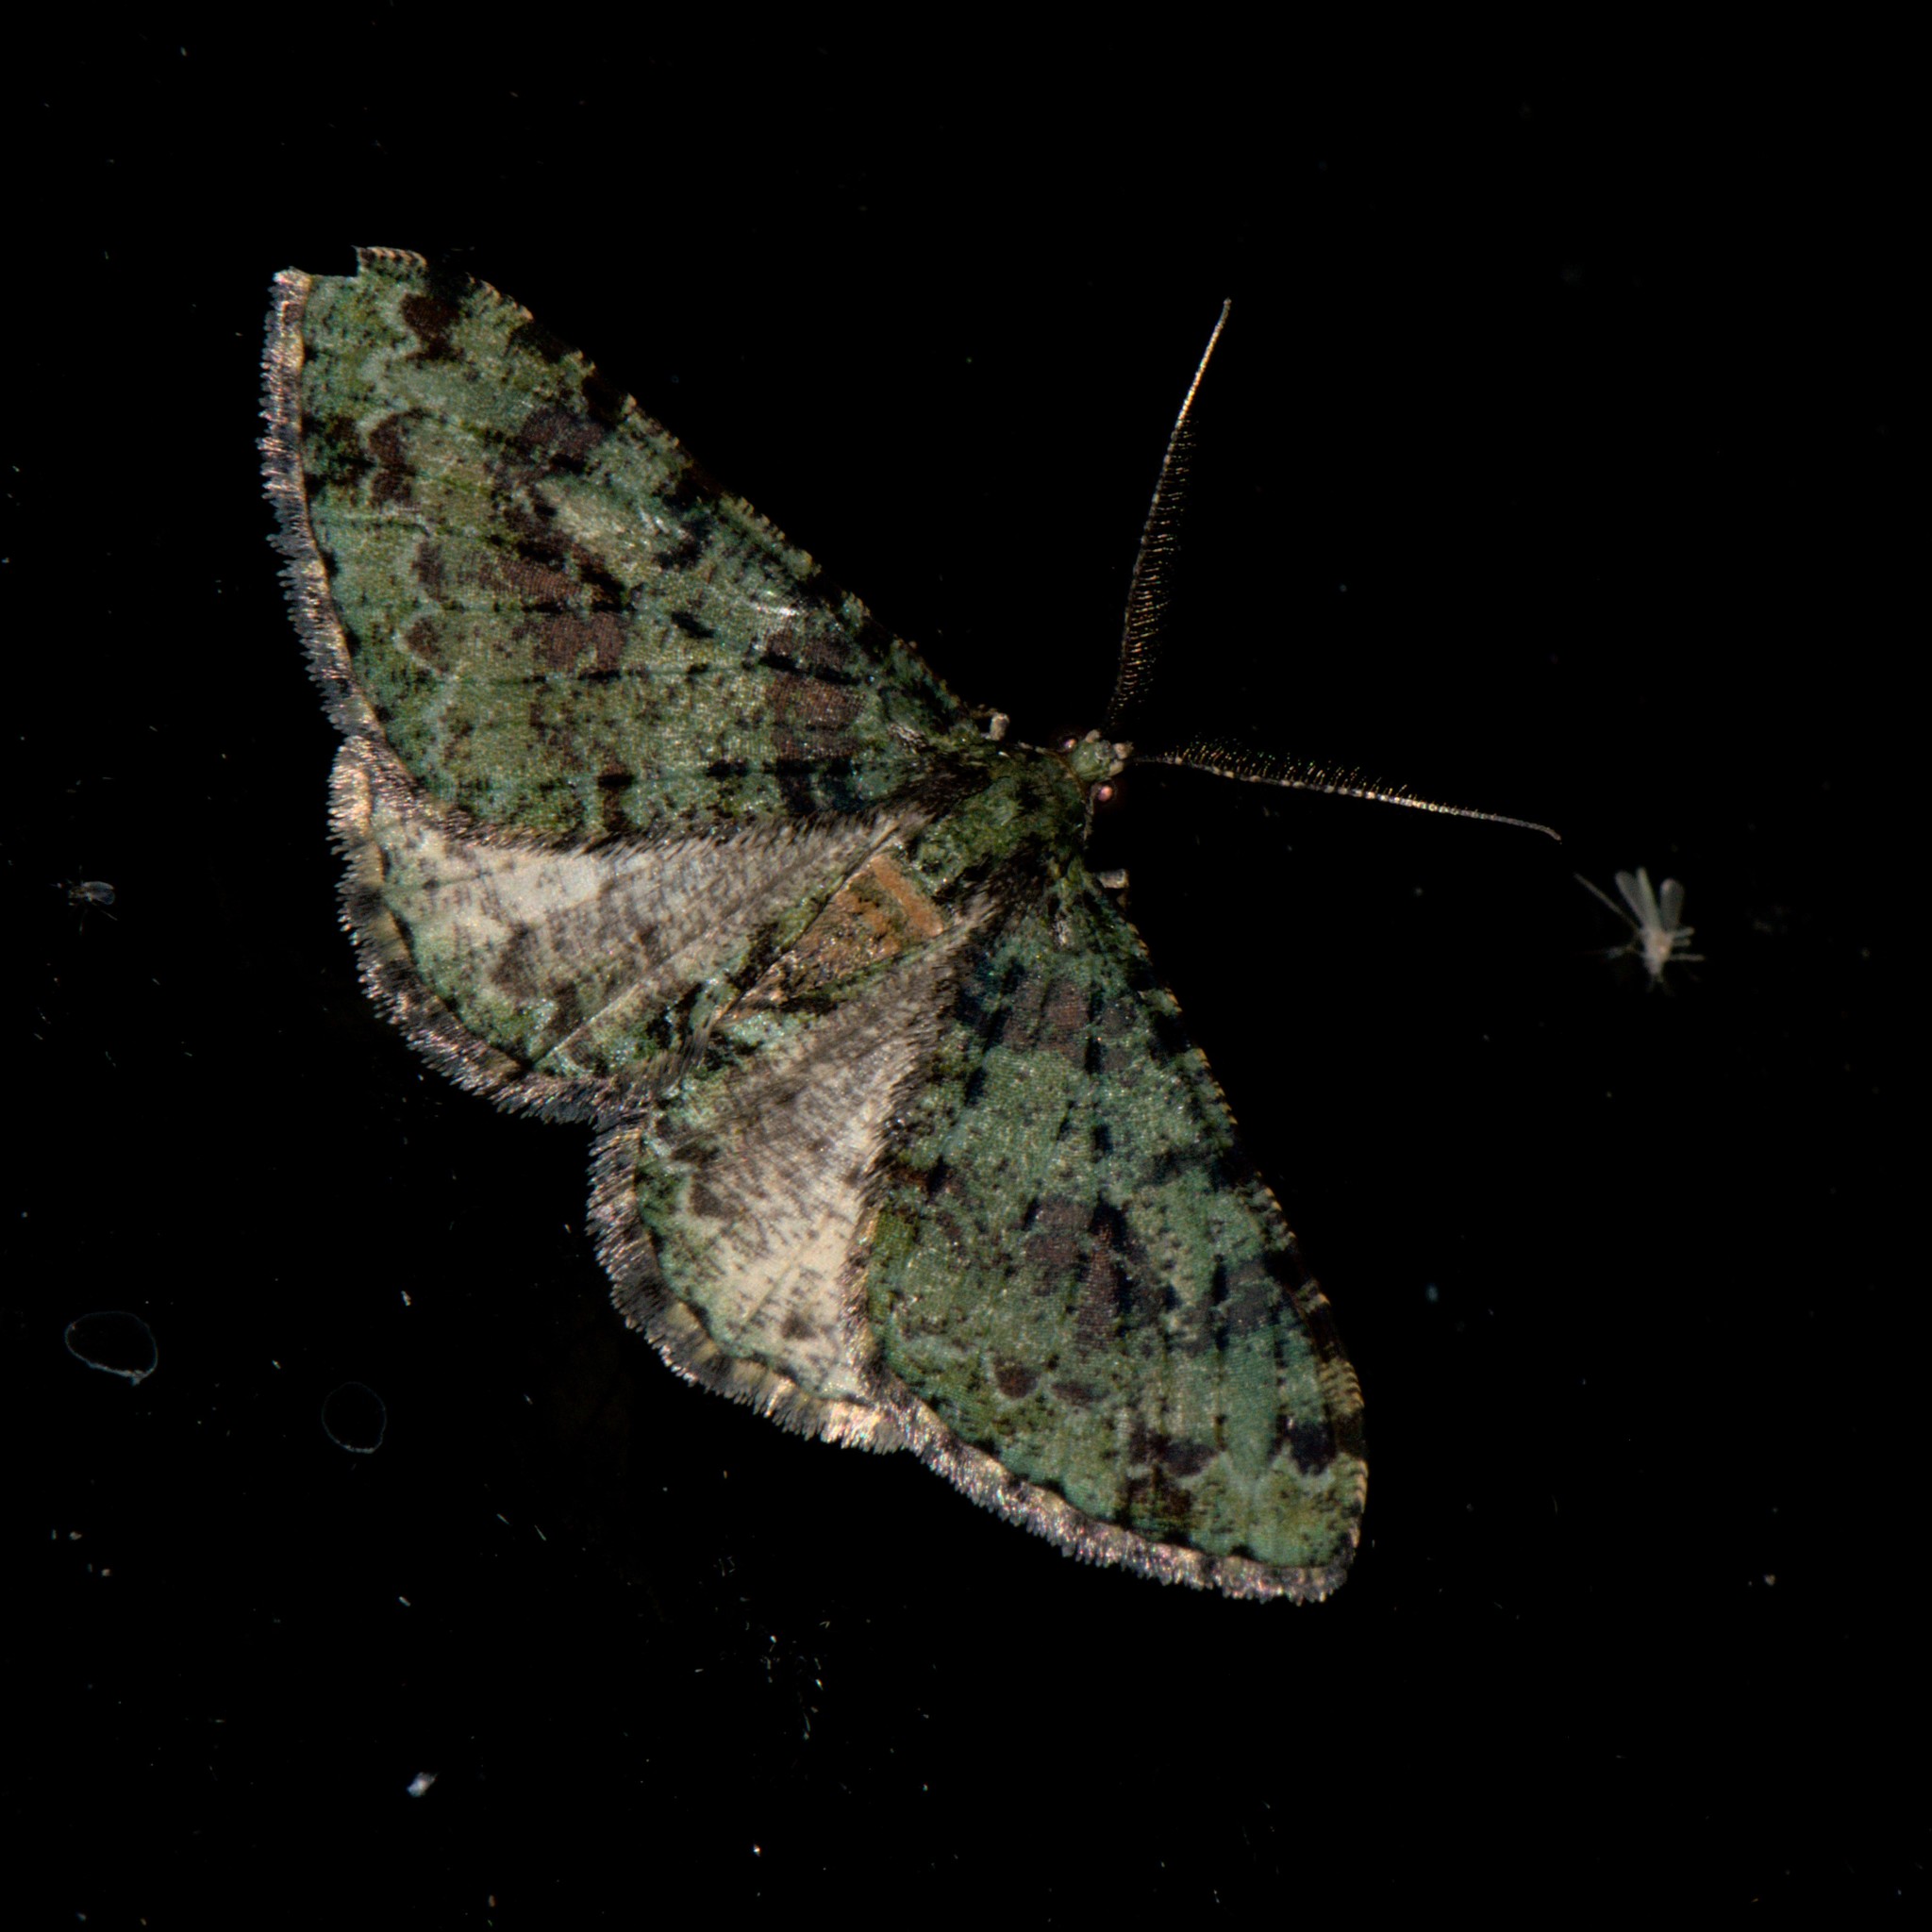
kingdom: Animalia
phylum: Arthropoda
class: Insecta
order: Lepidoptera
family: Geometridae
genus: Myrioblephara
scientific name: Myrioblephara duplexa
